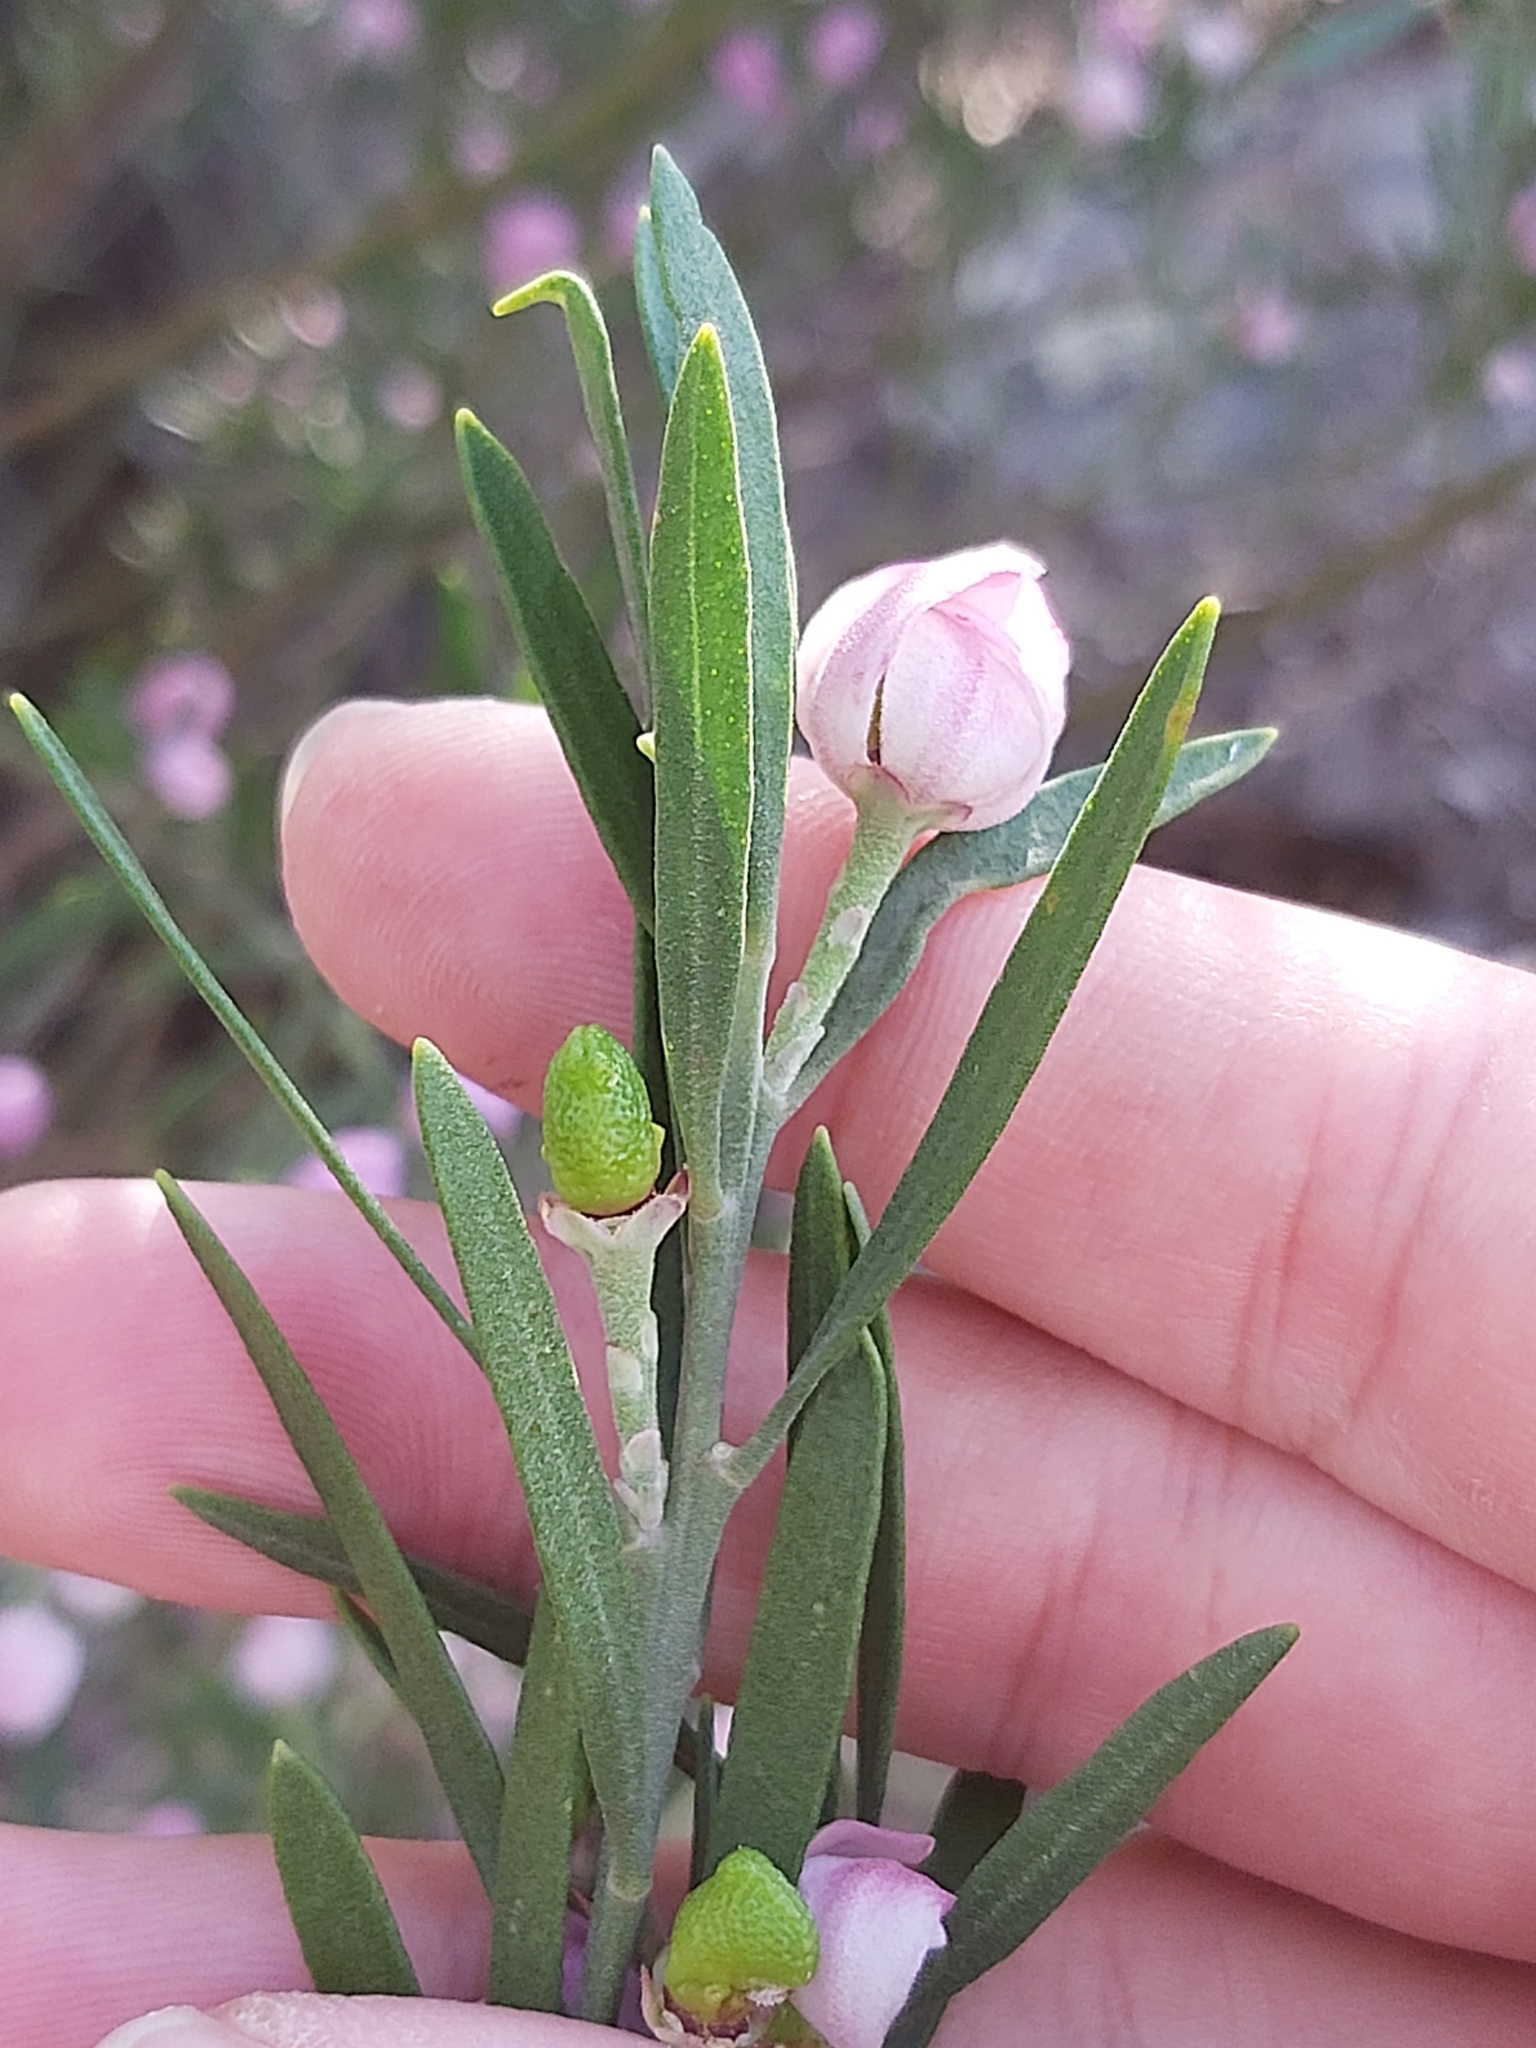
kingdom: Plantae
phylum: Tracheophyta
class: Magnoliopsida
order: Sapindales
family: Rutaceae
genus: Eriostemon
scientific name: Eriostemon australasius
